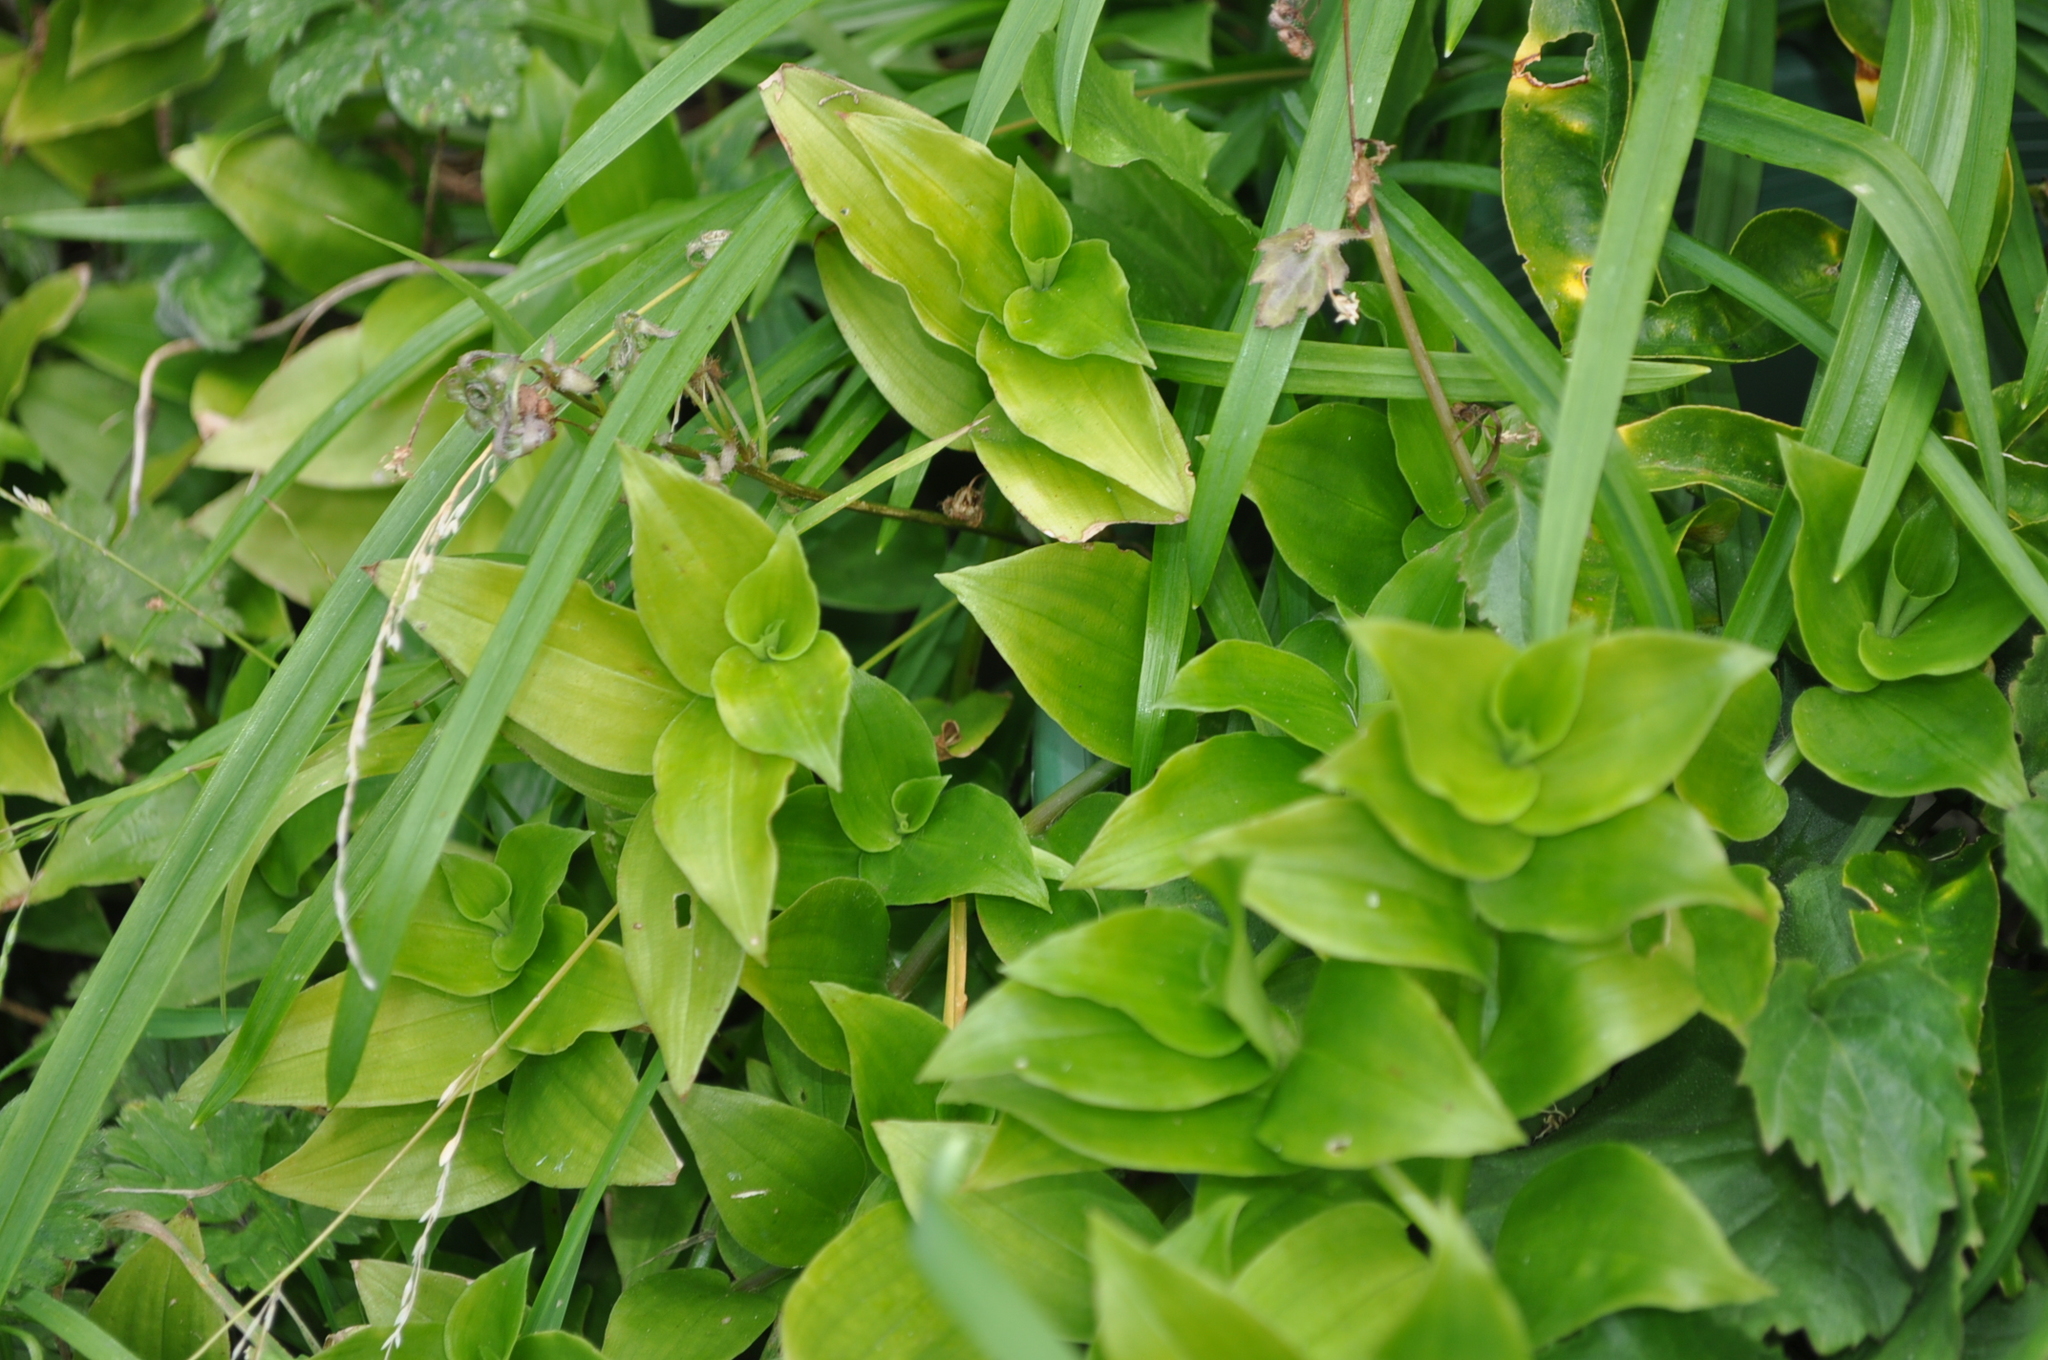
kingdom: Plantae
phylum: Tracheophyta
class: Liliopsida
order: Commelinales
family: Commelinaceae
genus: Tradescantia
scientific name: Tradescantia fluminensis
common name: Wandering-jew
